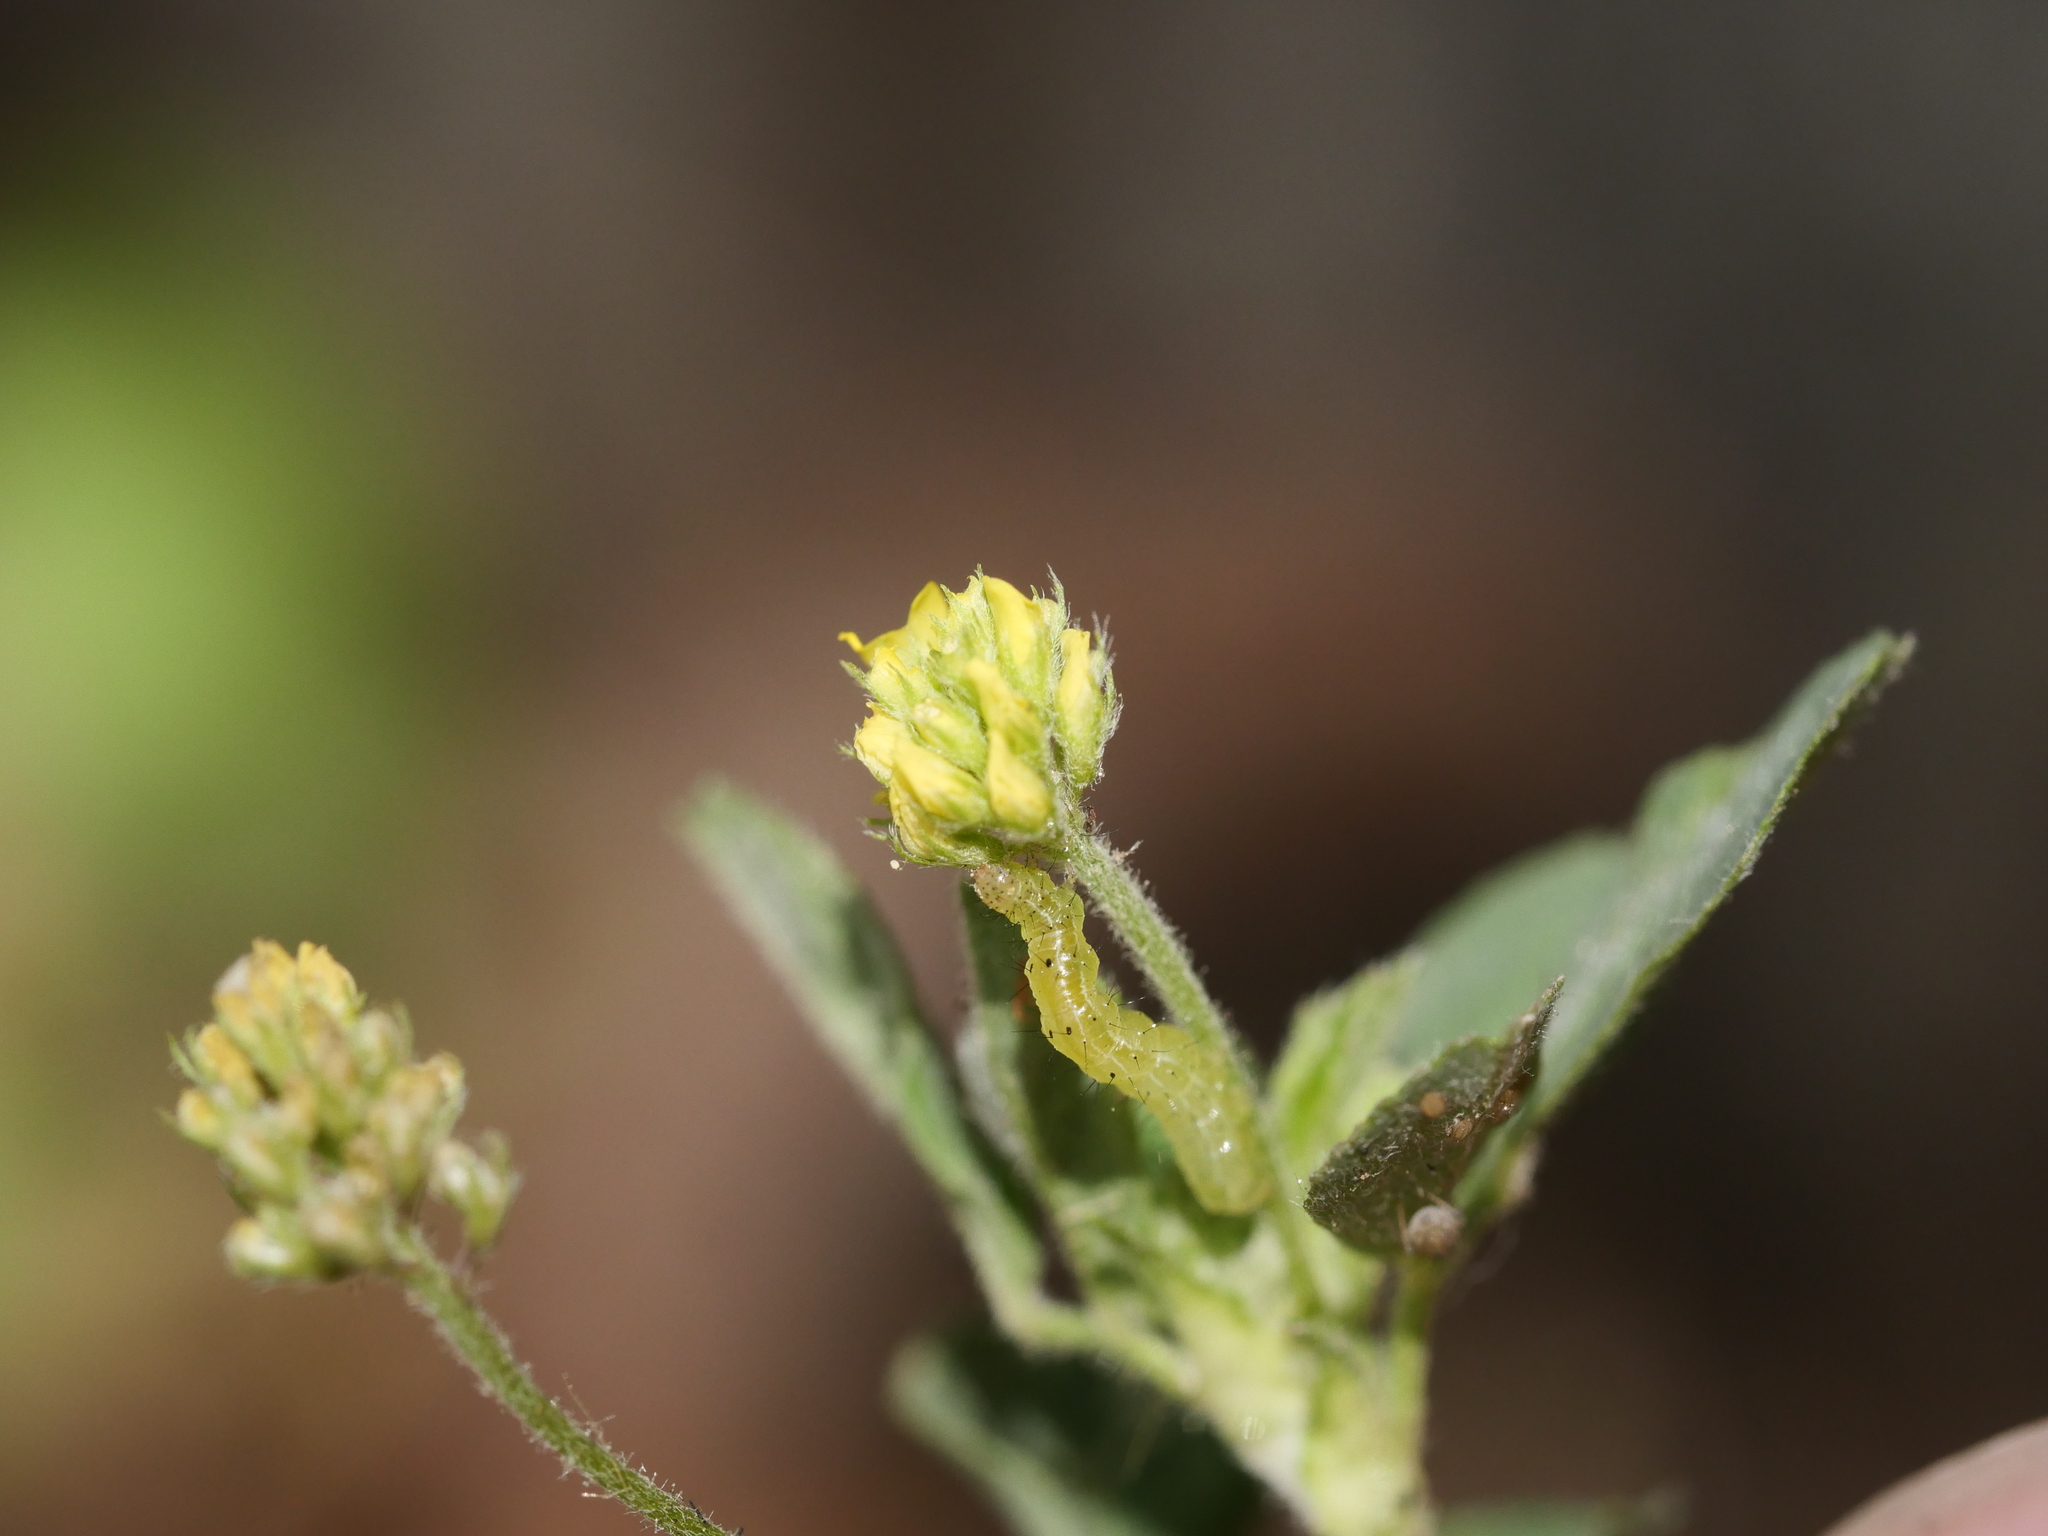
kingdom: Plantae
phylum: Tracheophyta
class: Magnoliopsida
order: Fabales
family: Fabaceae
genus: Medicago
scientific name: Medicago lupulina
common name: Black medick
